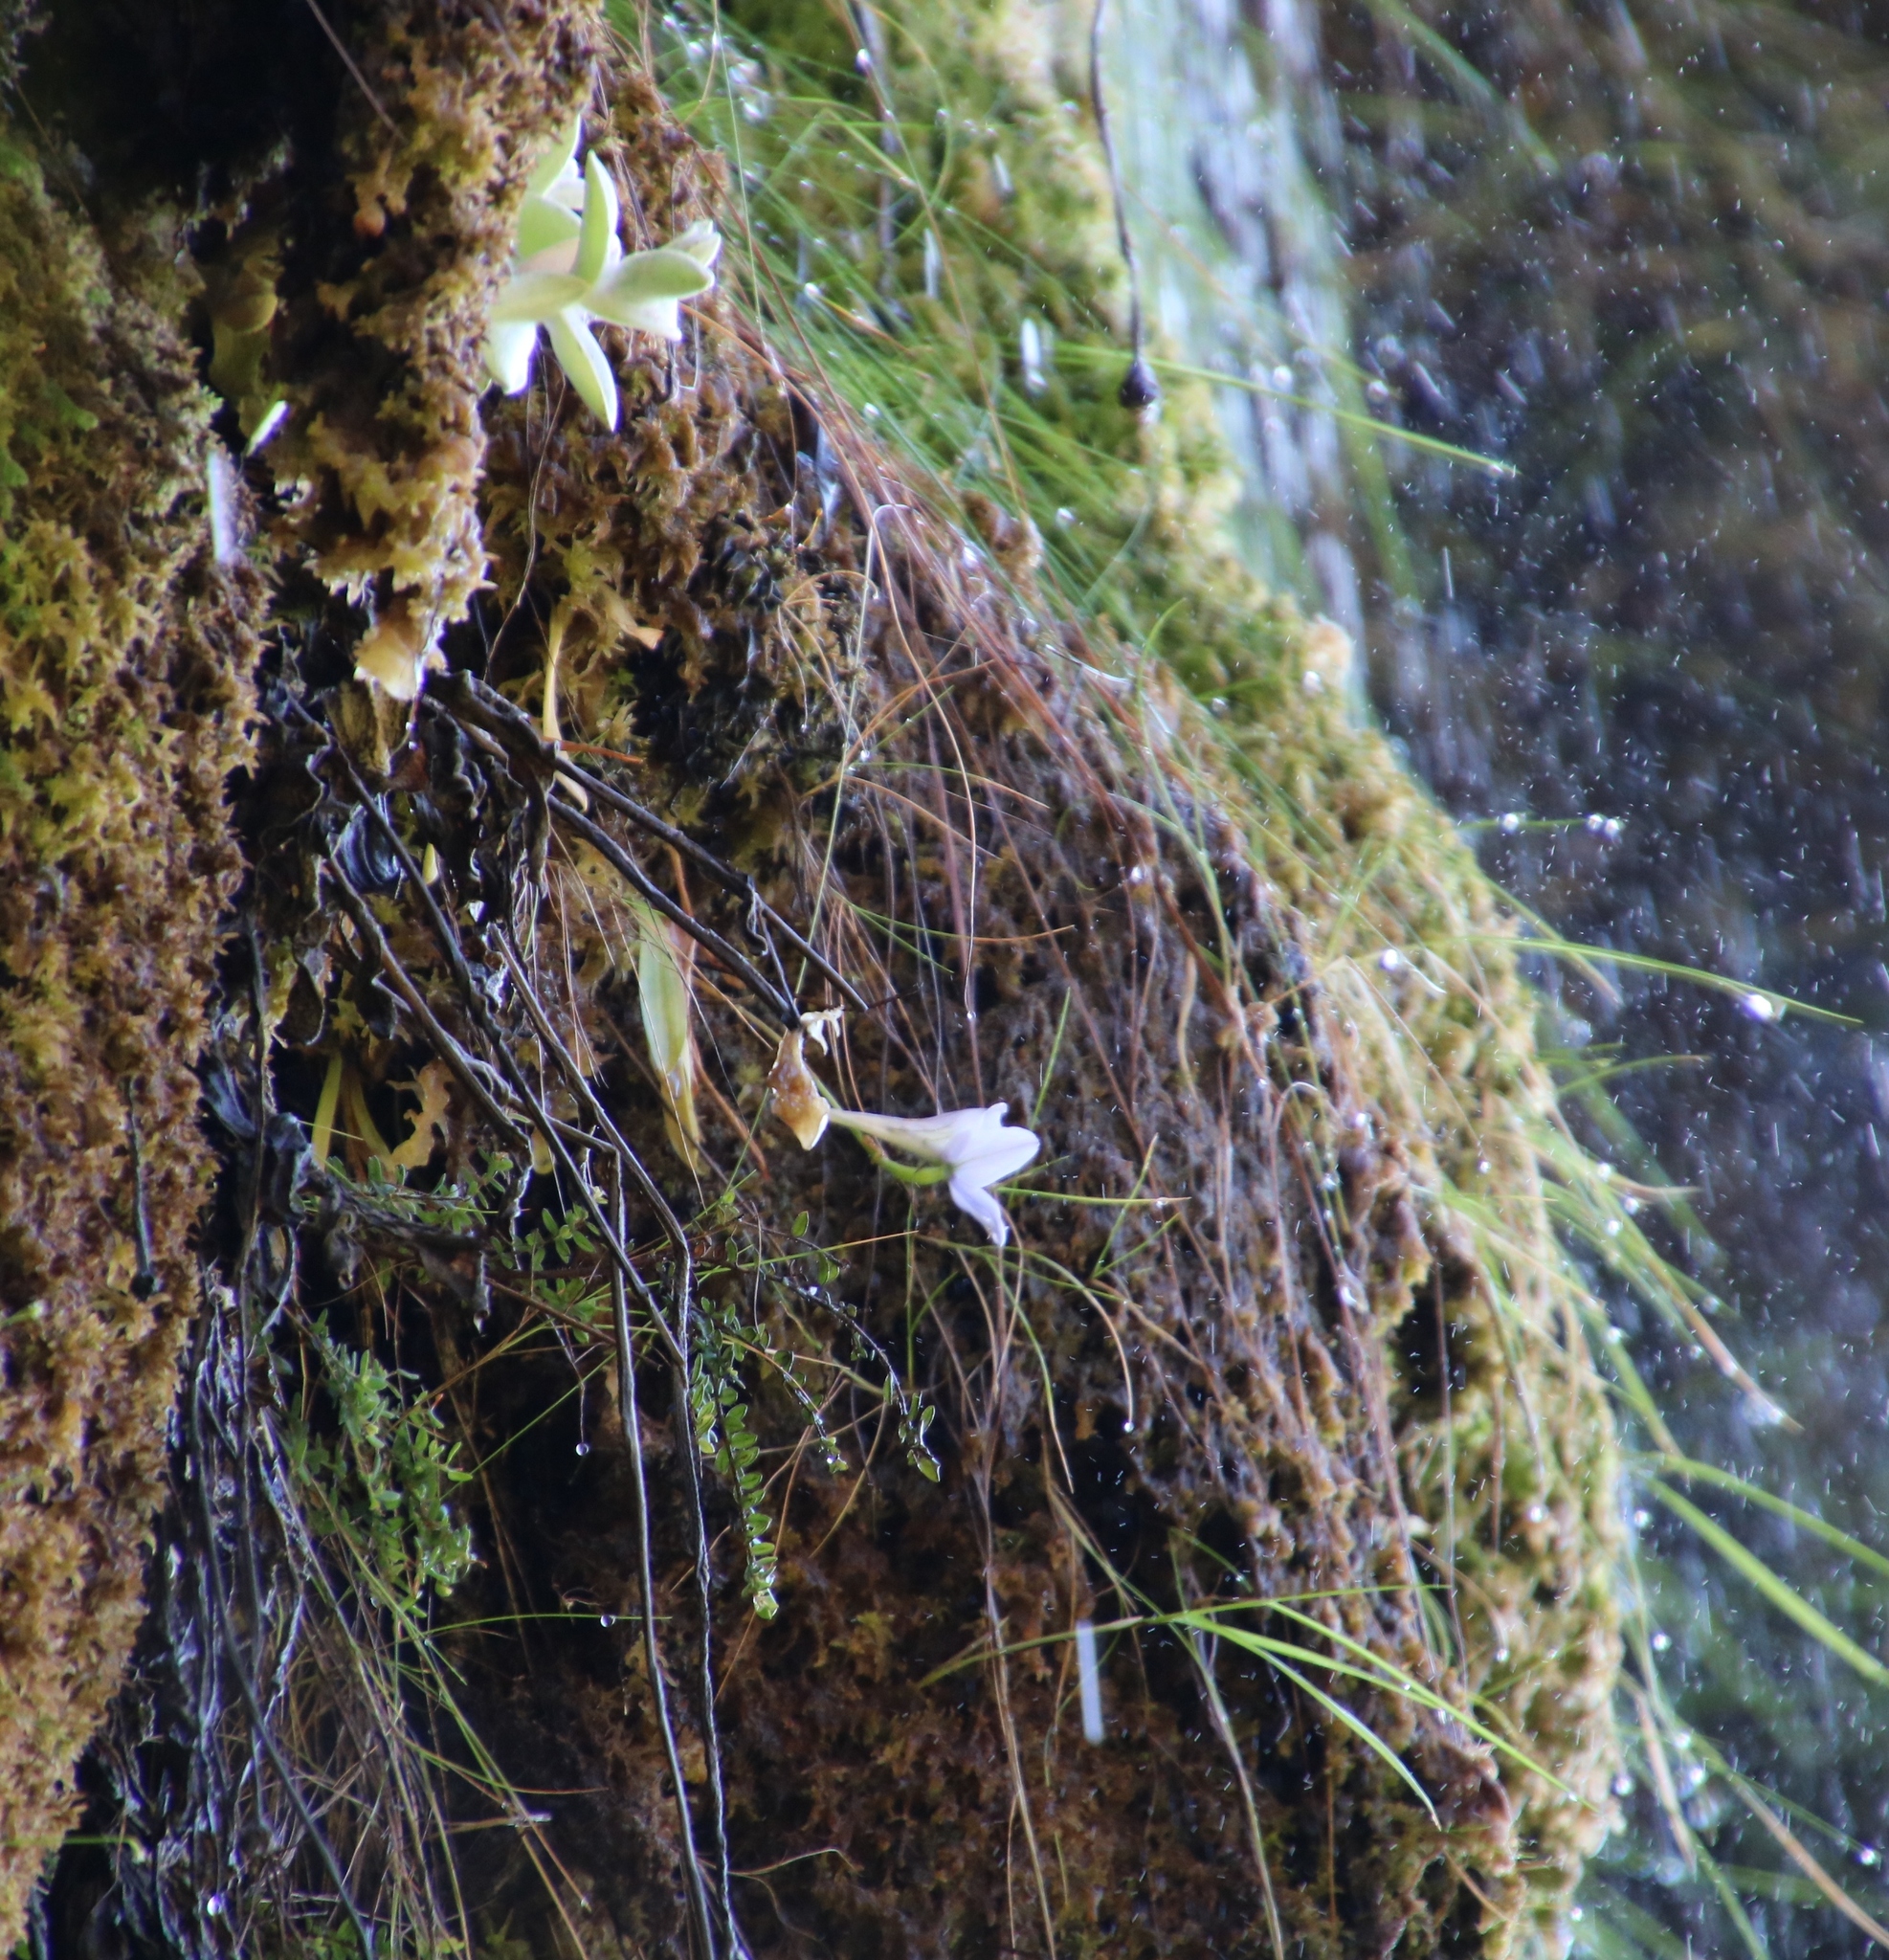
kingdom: Plantae
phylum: Tracheophyta
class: Liliopsida
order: Asparagales
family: Orchidaceae
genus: Disa
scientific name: Disa longicornu
